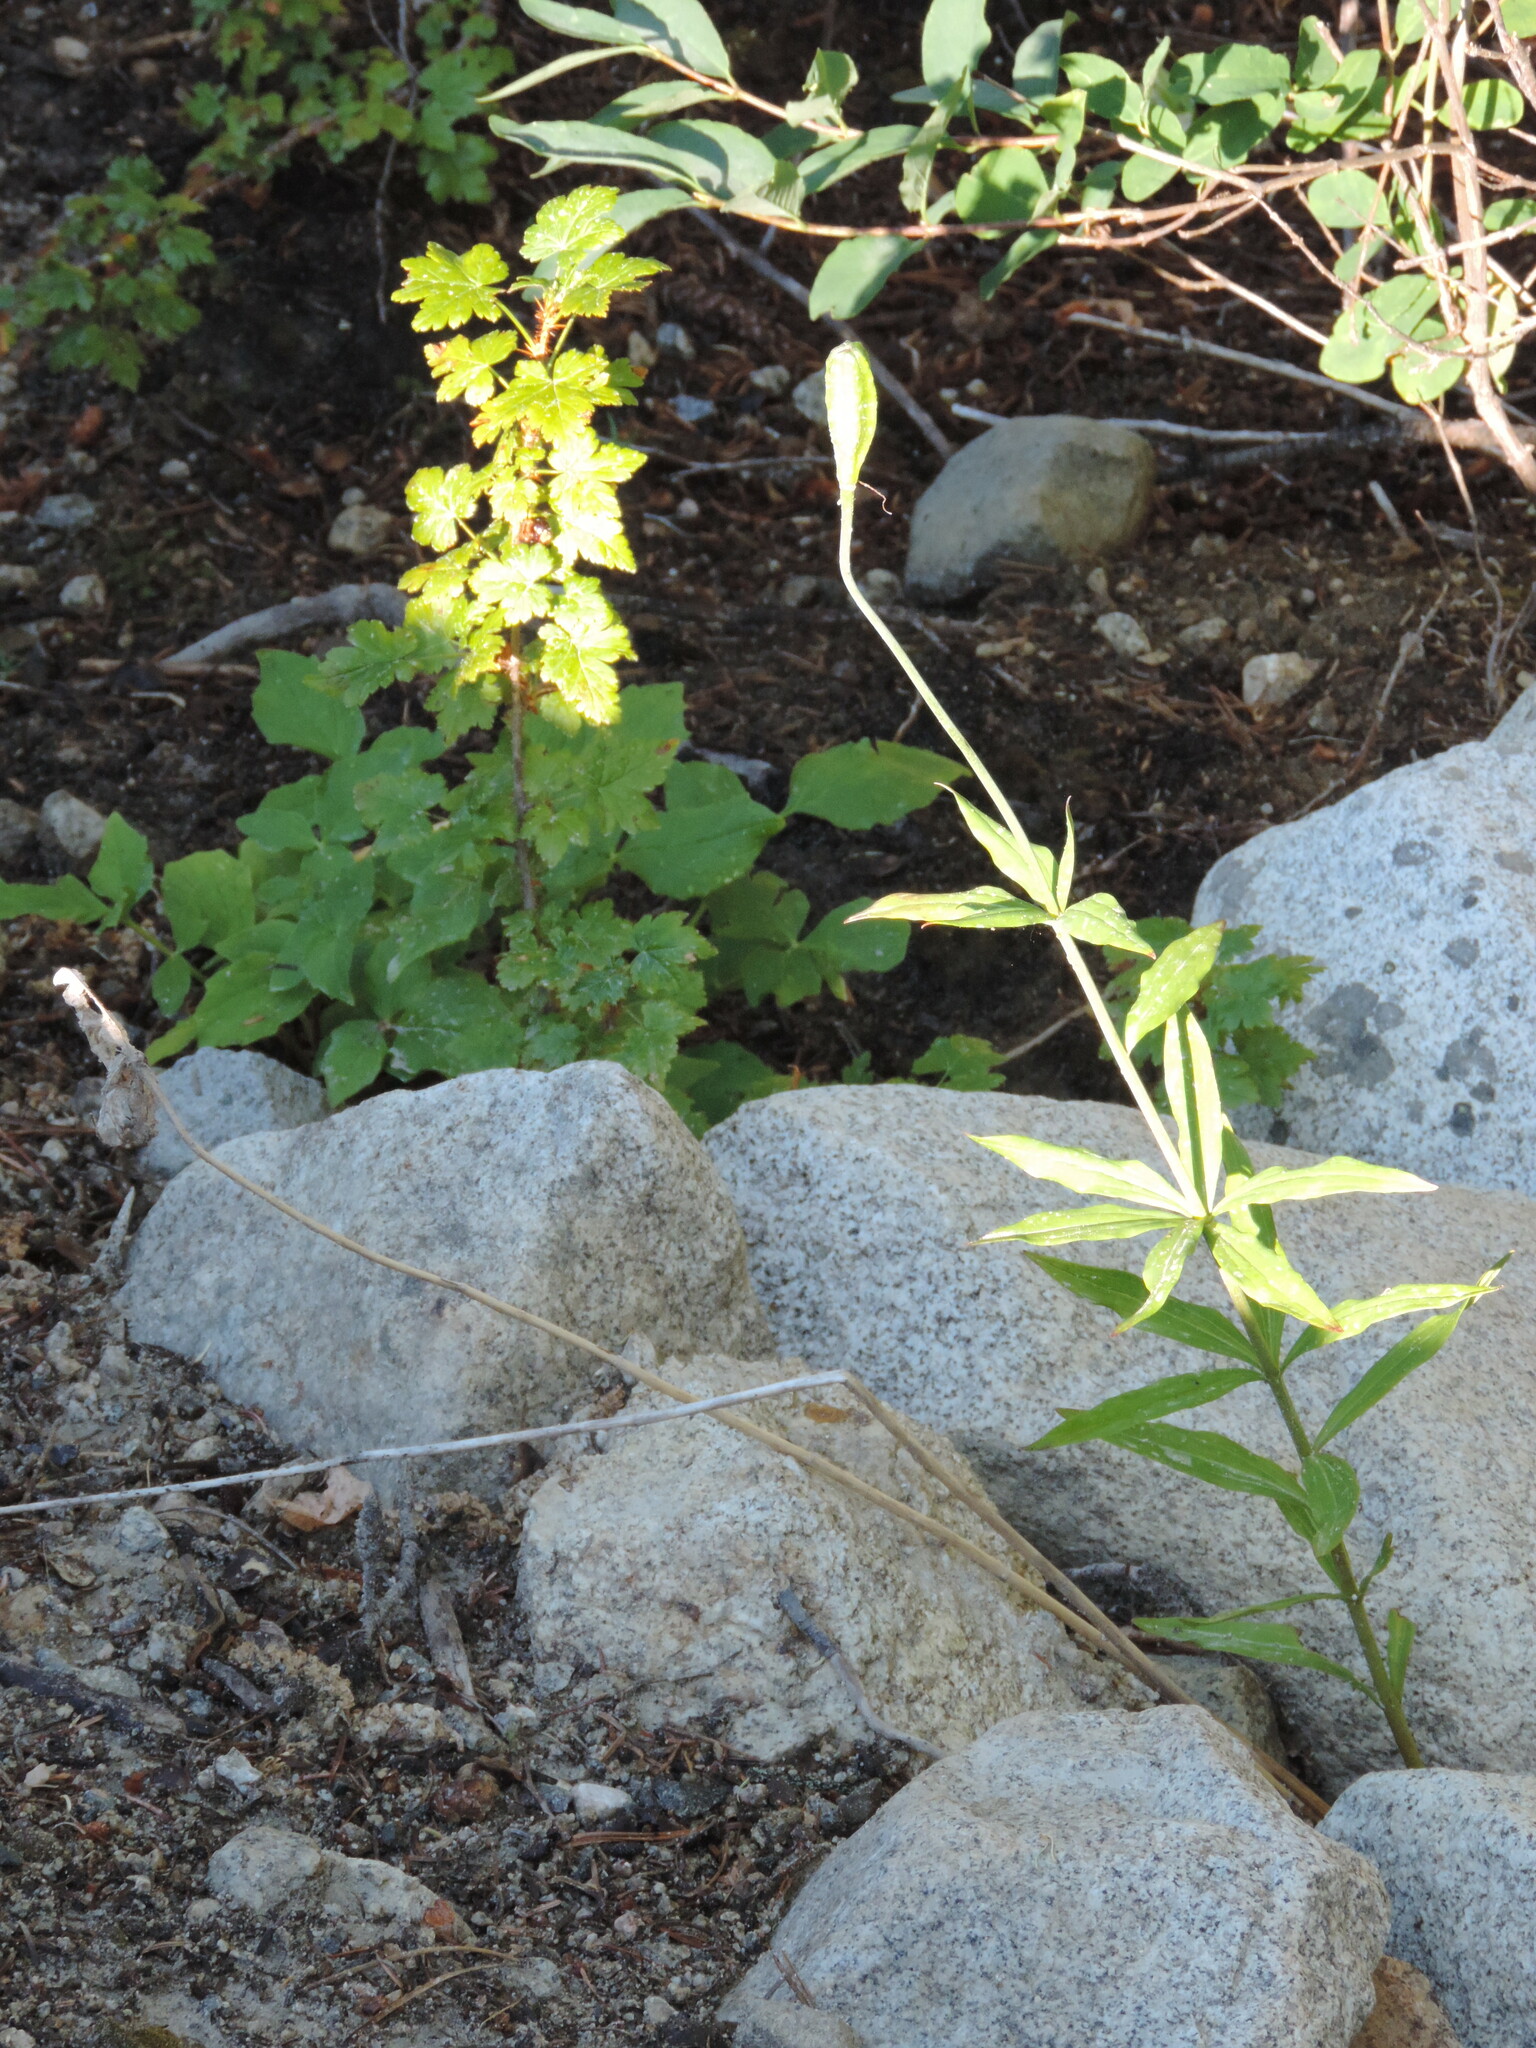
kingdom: Plantae
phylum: Tracheophyta
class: Liliopsida
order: Liliales
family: Liliaceae
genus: Lilium
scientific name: Lilium columbianum
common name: Columbia lily
